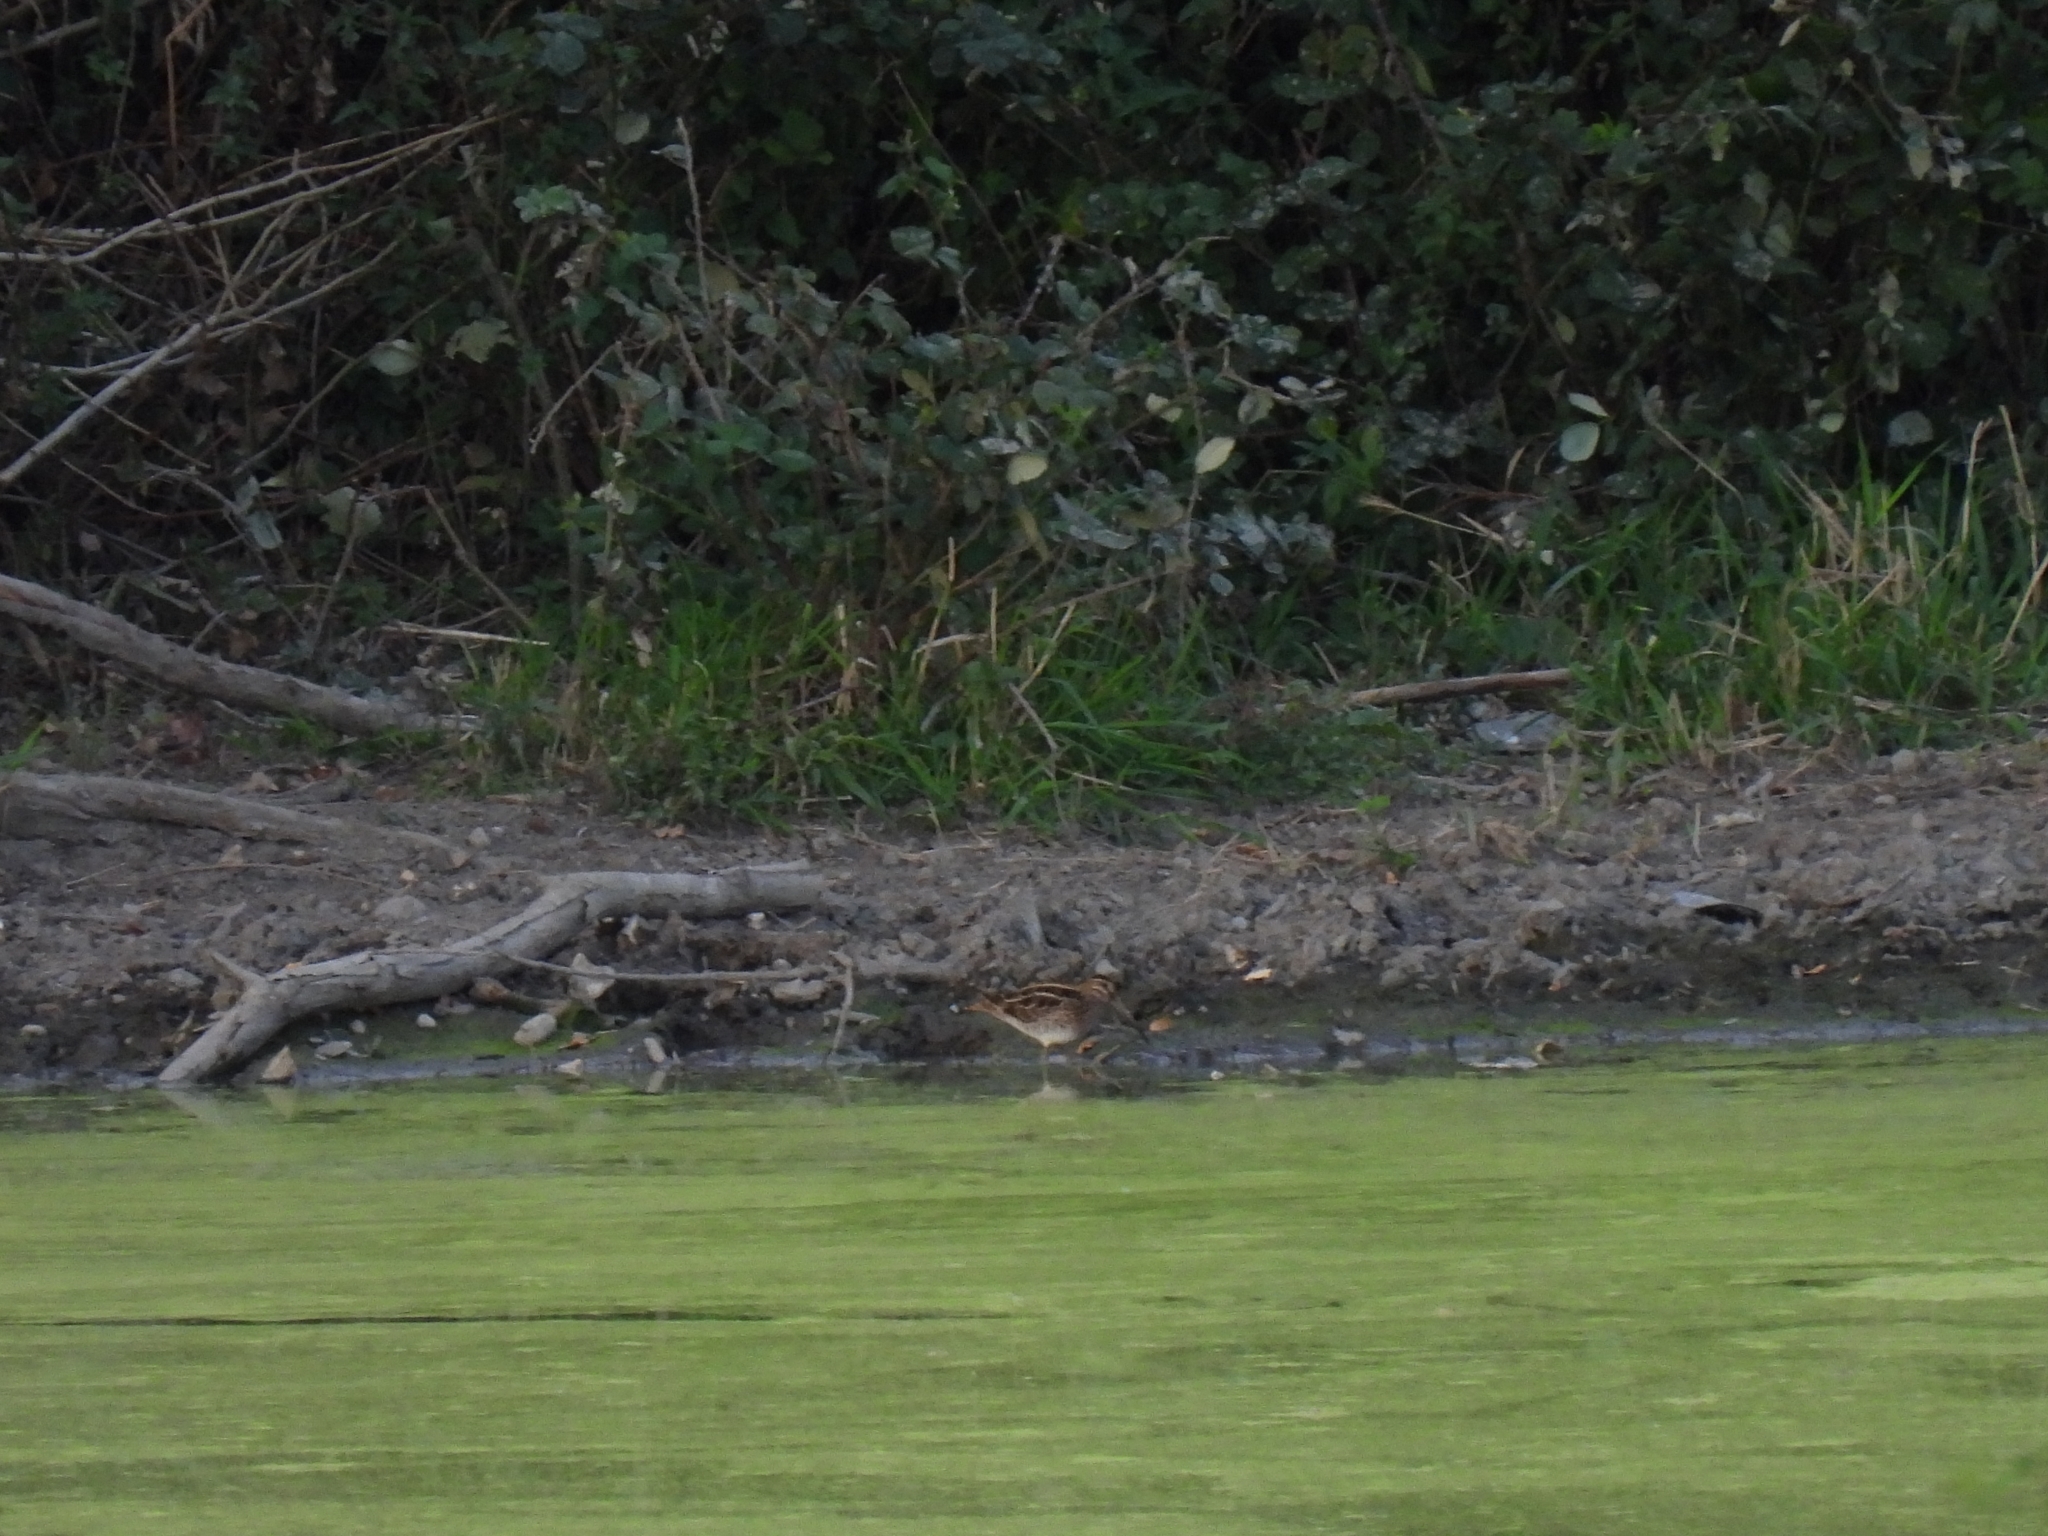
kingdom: Animalia
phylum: Chordata
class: Aves
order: Charadriiformes
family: Scolopacidae
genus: Gallinago
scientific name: Gallinago gallinago
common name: Common snipe
